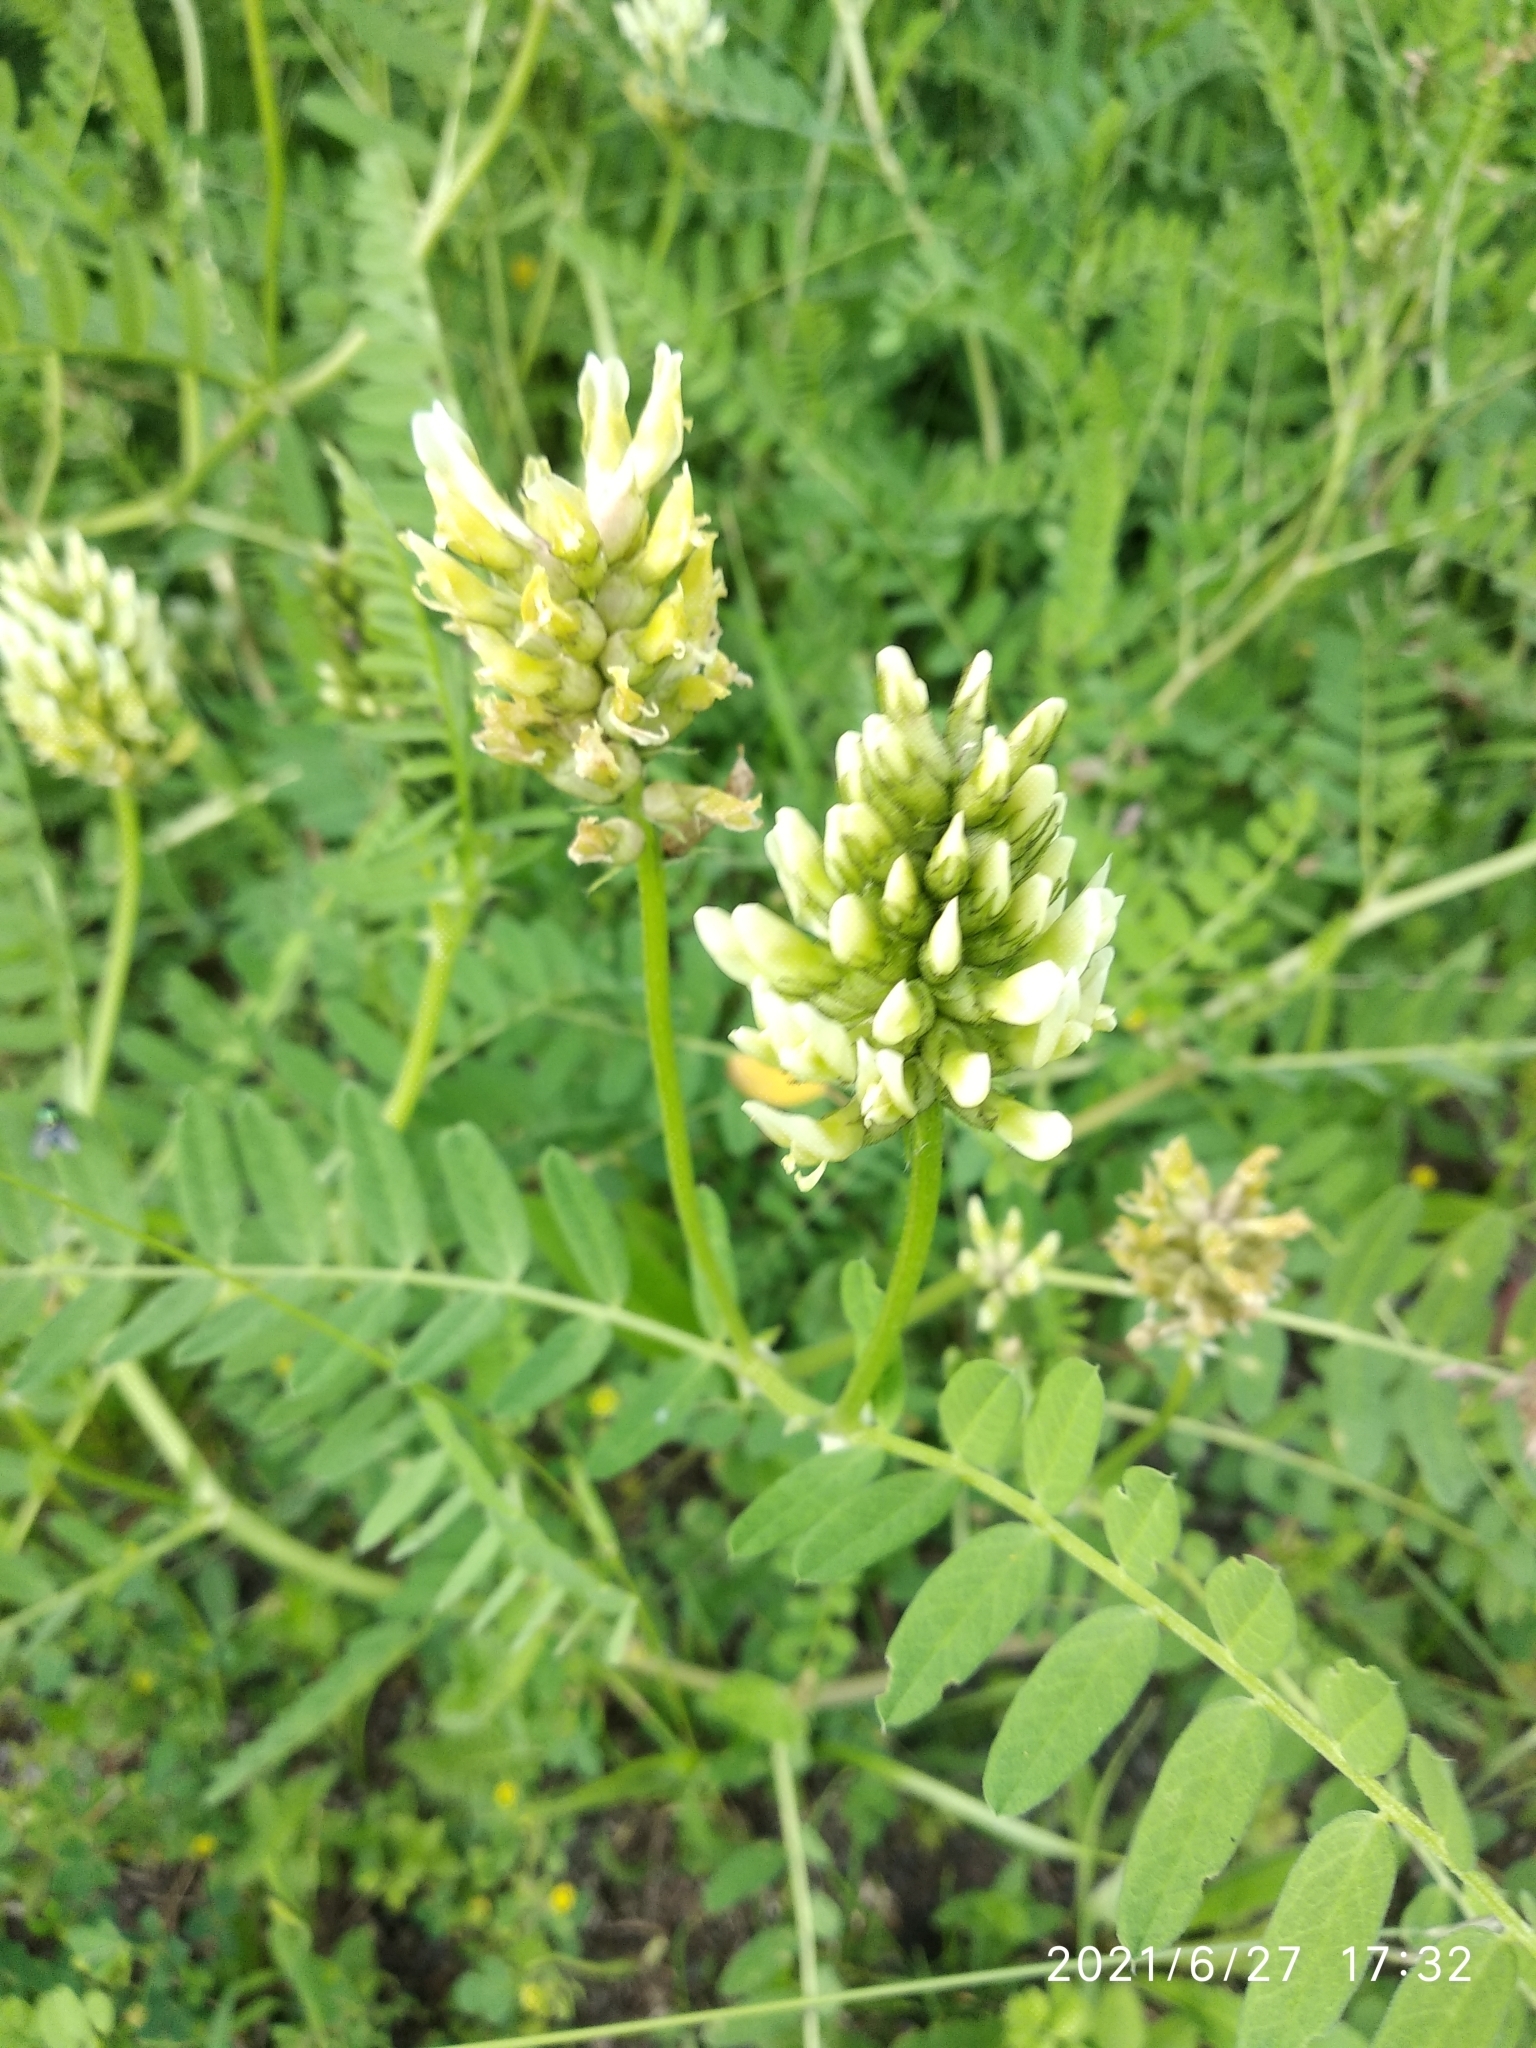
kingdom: Plantae
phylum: Tracheophyta
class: Magnoliopsida
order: Fabales
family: Fabaceae
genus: Astragalus
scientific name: Astragalus cicer
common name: Chick-pea milk-vetch
